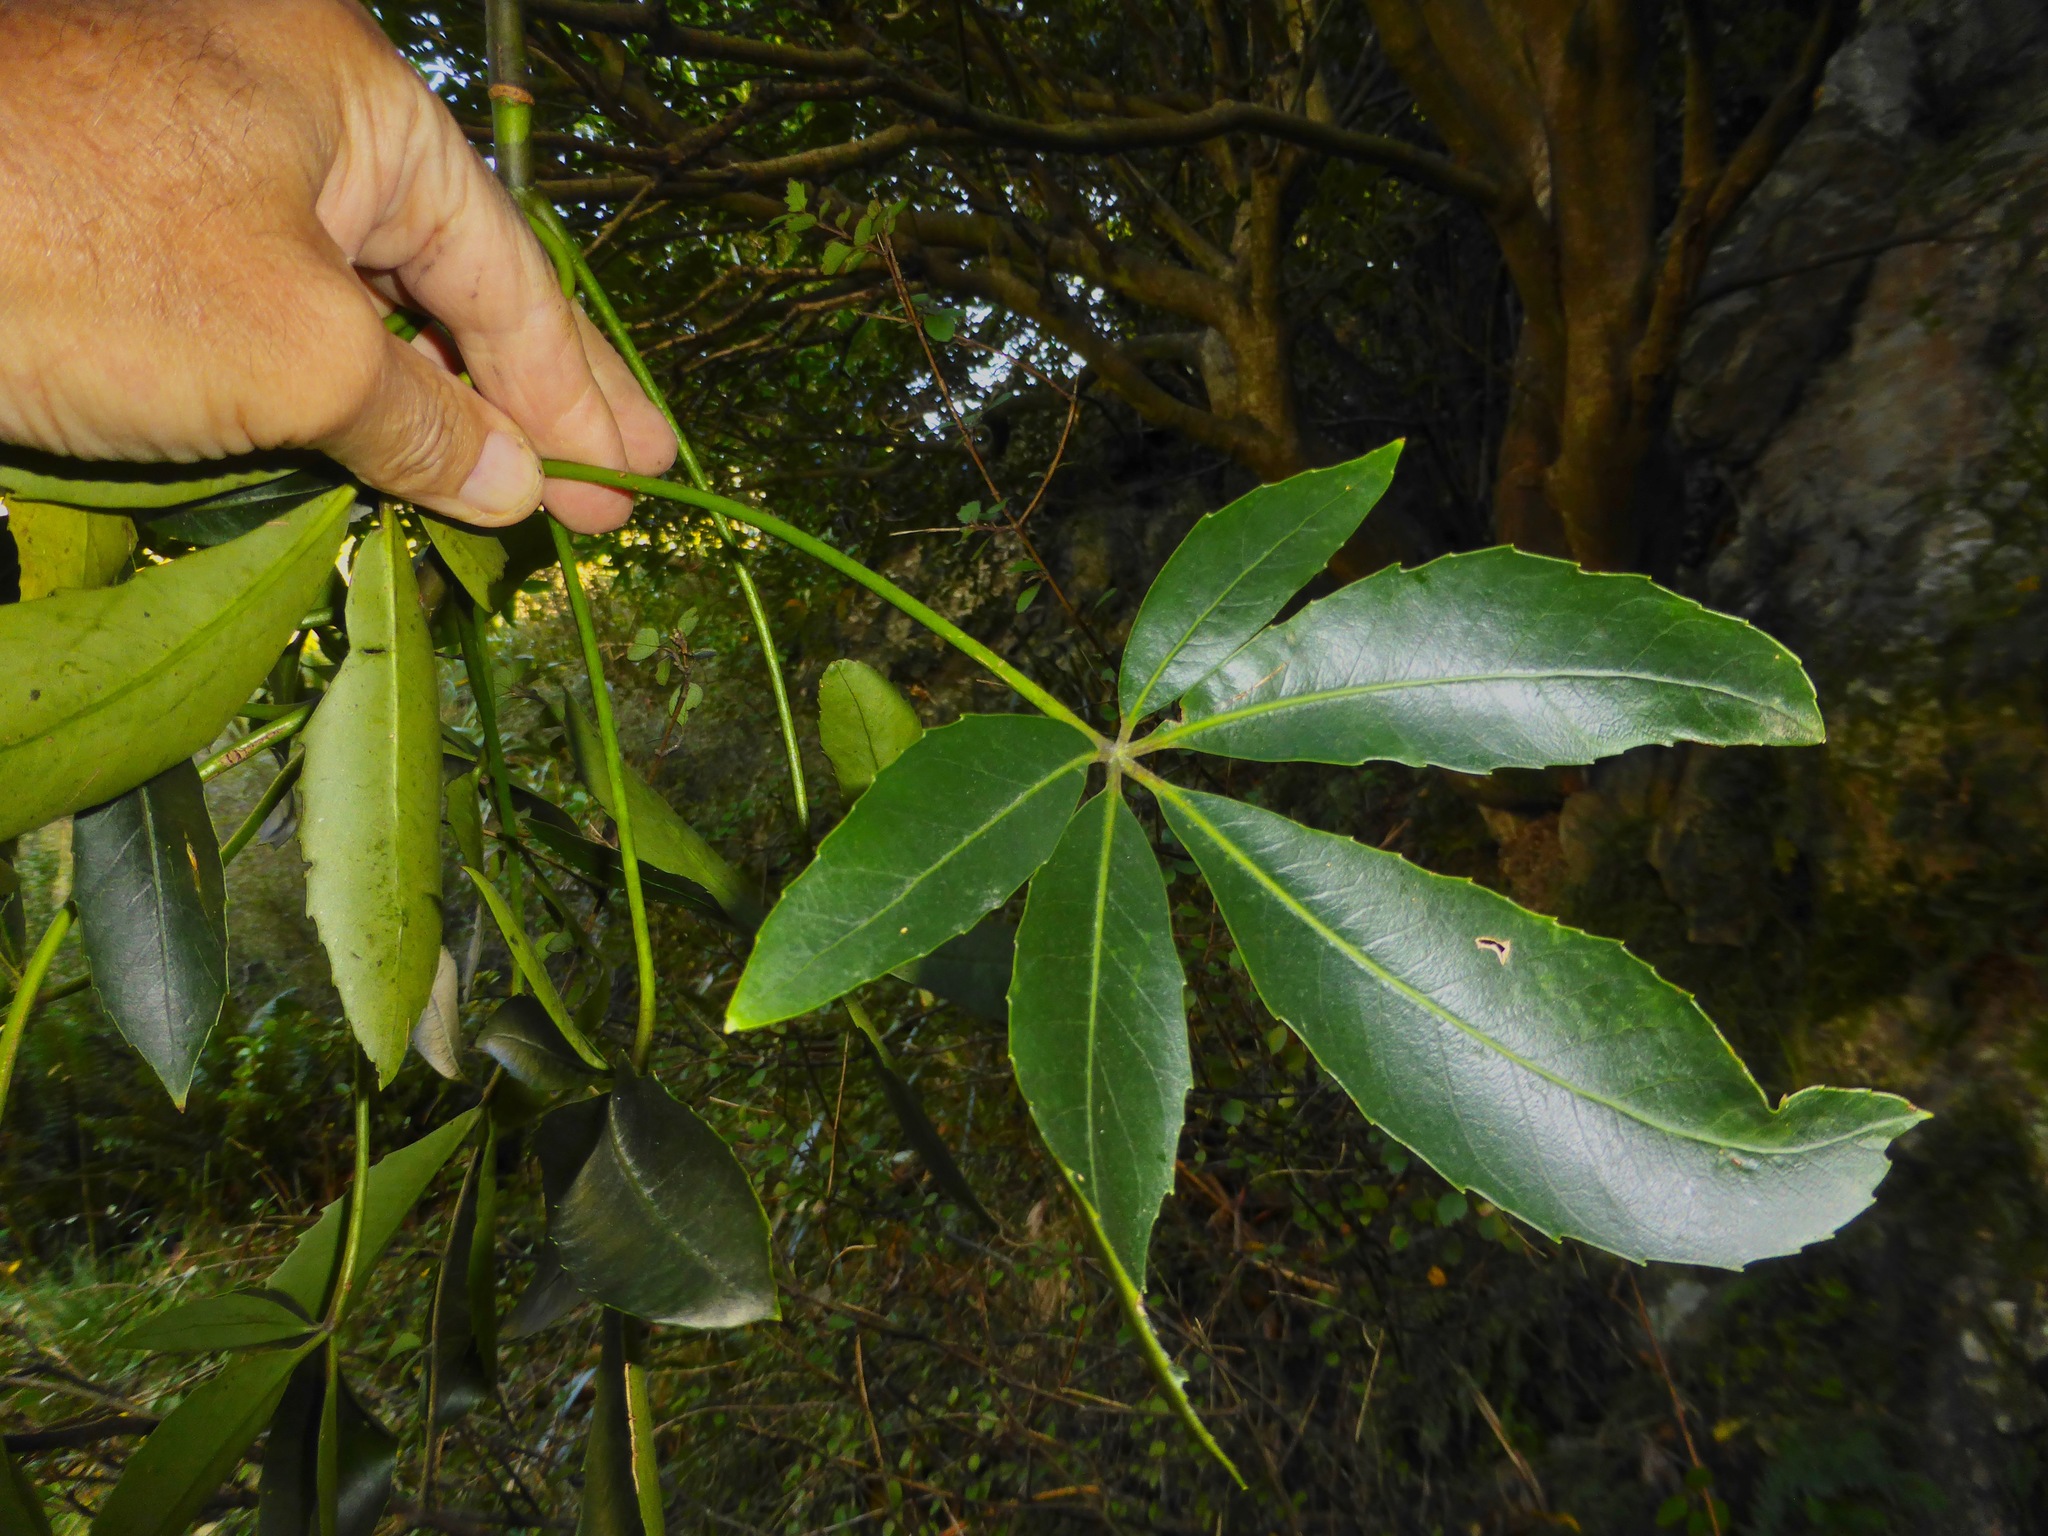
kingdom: Plantae
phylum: Tracheophyta
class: Magnoliopsida
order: Apiales
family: Araliaceae
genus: Neopanax
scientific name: Neopanax colensoi
